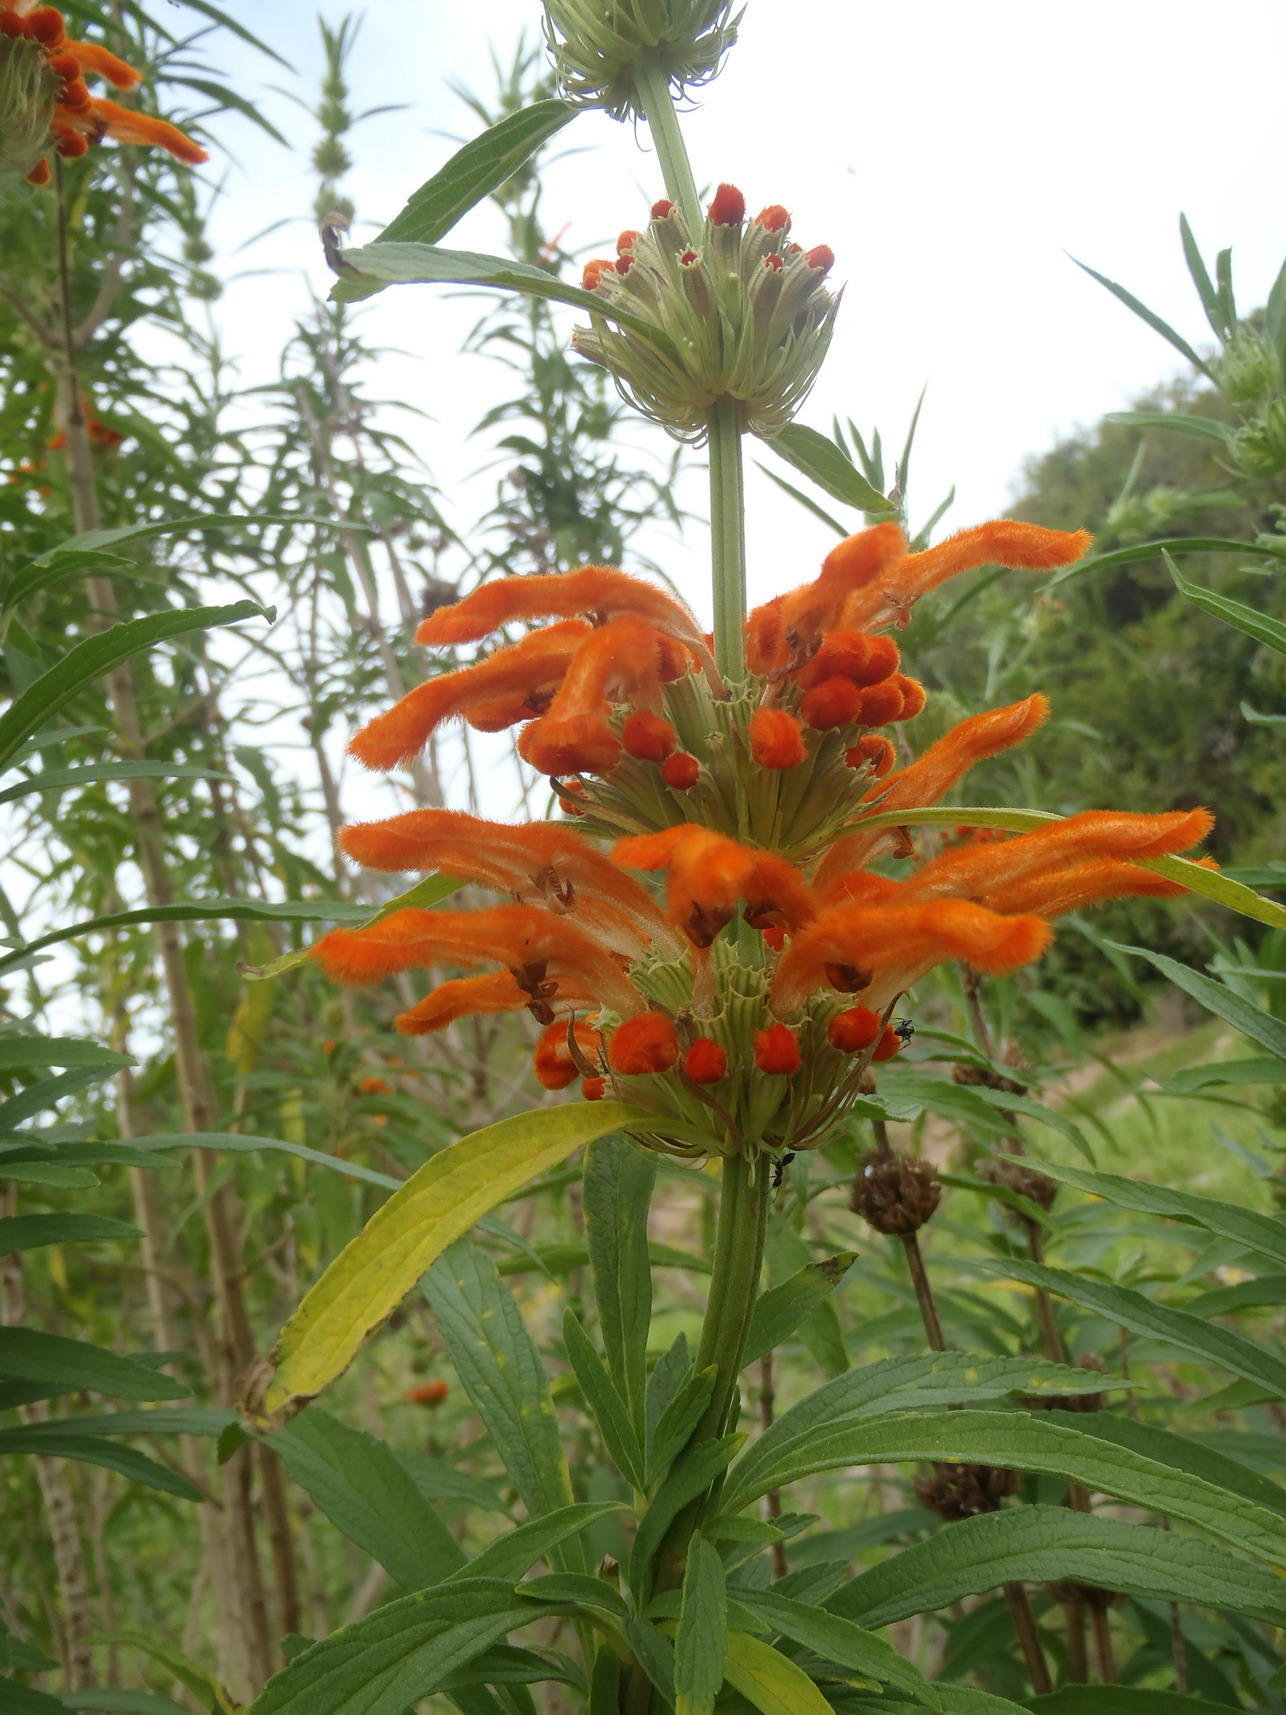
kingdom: Plantae
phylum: Tracheophyta
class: Magnoliopsida
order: Lamiales
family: Lamiaceae
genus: Leonotis
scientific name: Leonotis leonurus
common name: Lion's ear
